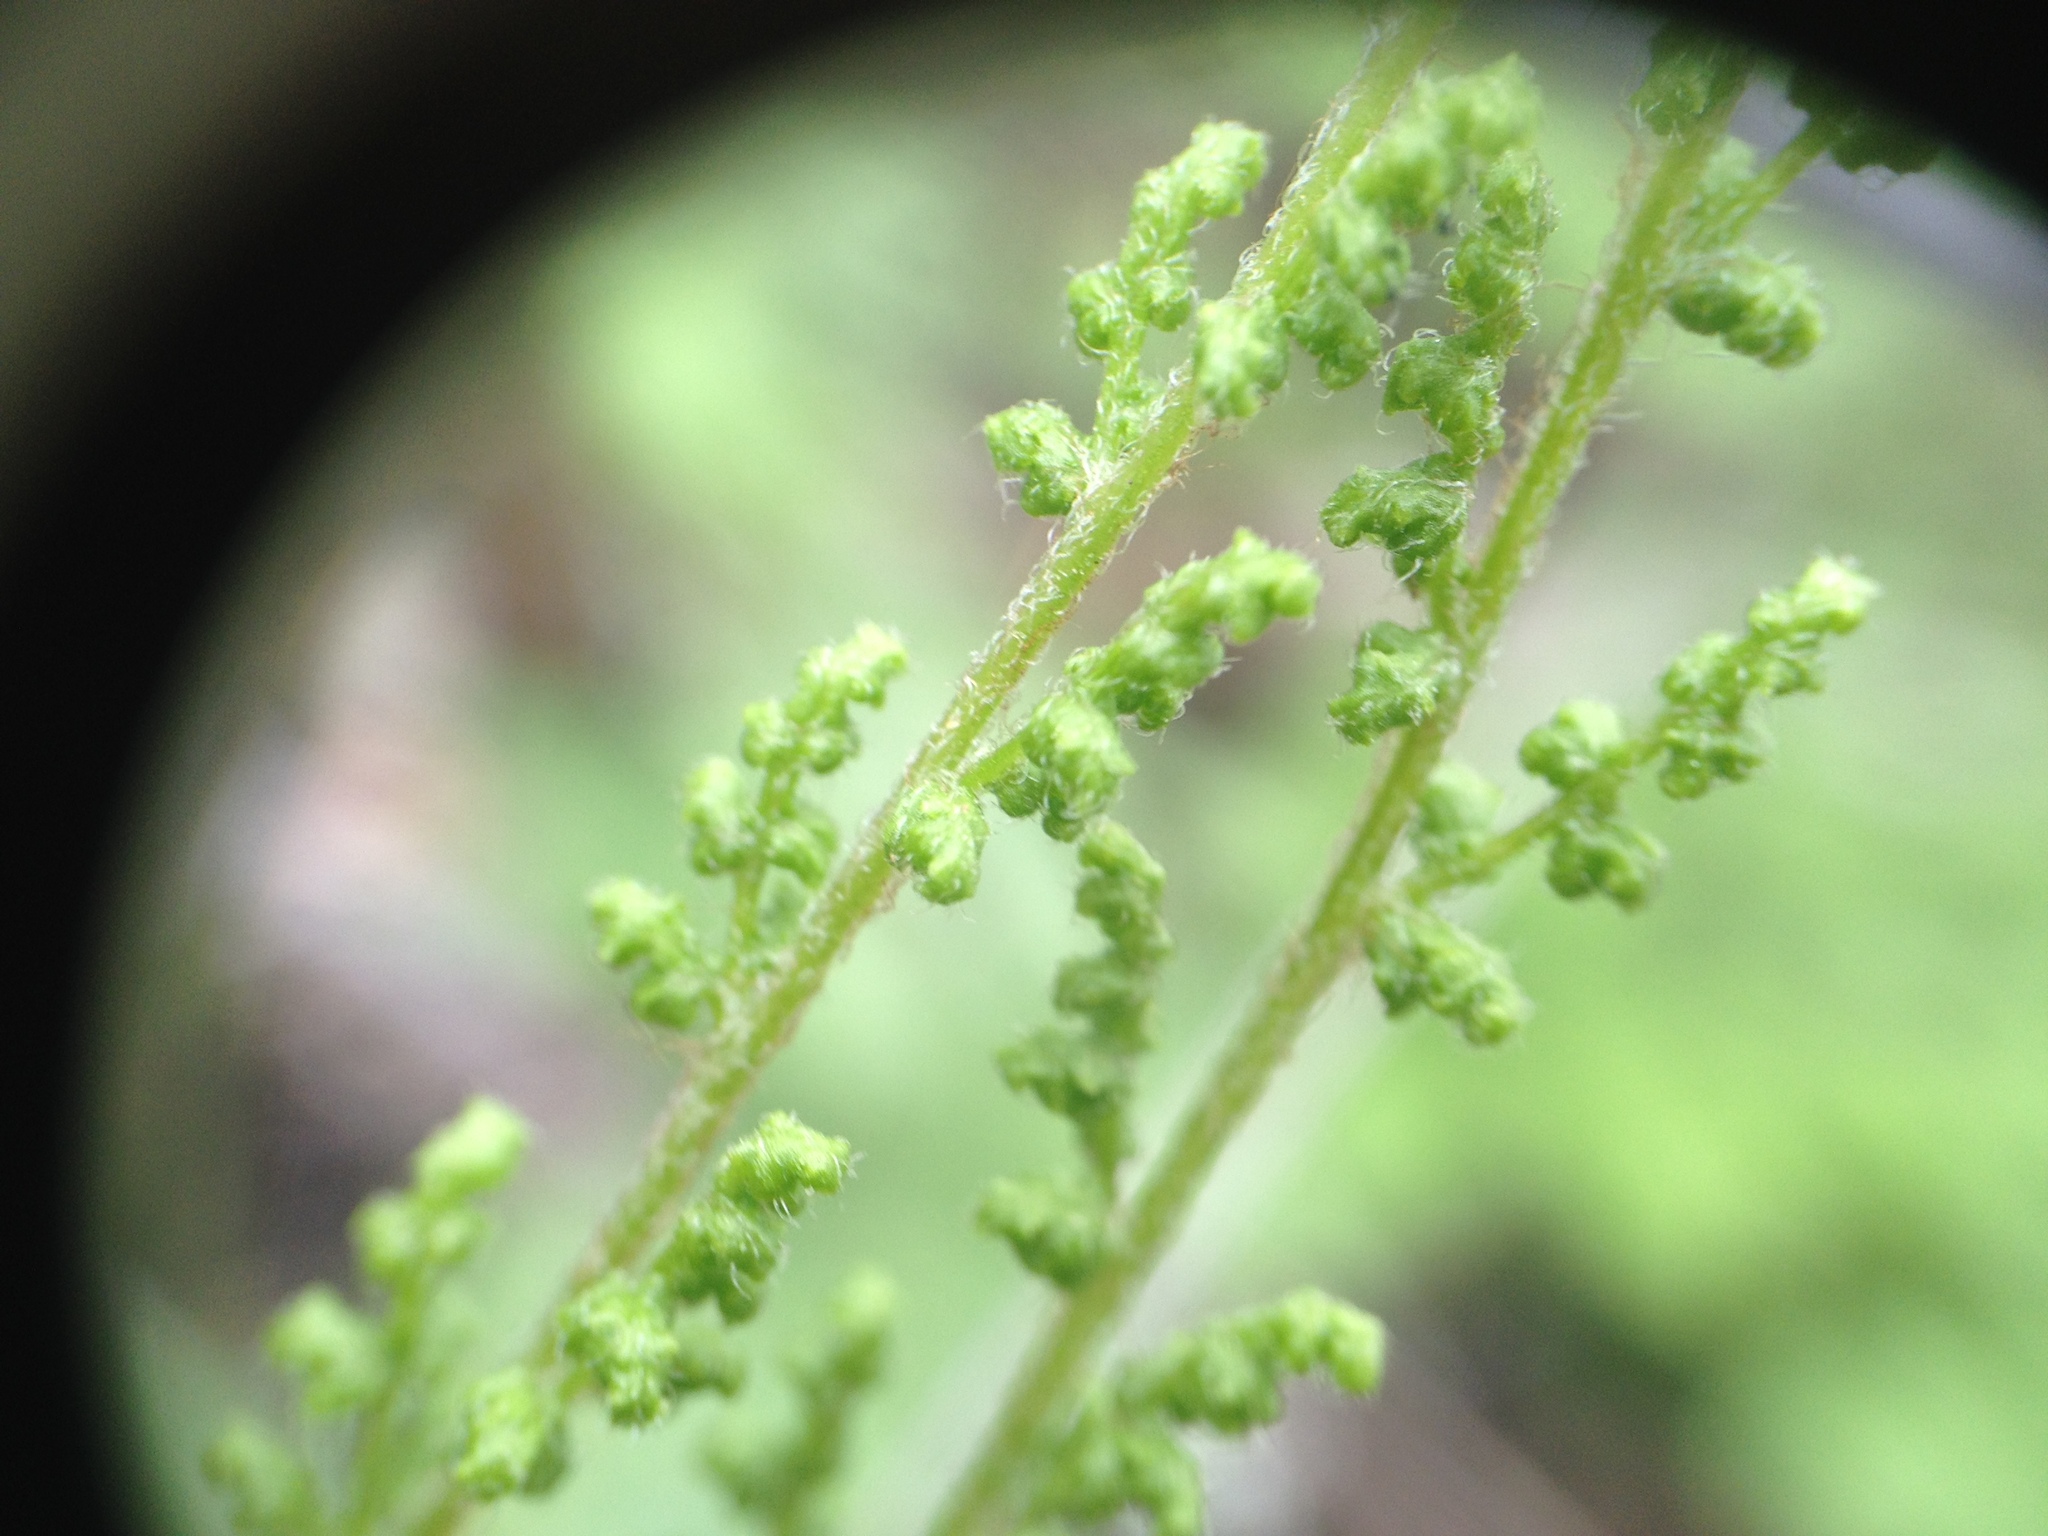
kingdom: Plantae
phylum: Tracheophyta
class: Polypodiopsida
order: Schizaeales
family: Anemiaceae
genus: Anemia
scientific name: Anemia tomentosa
